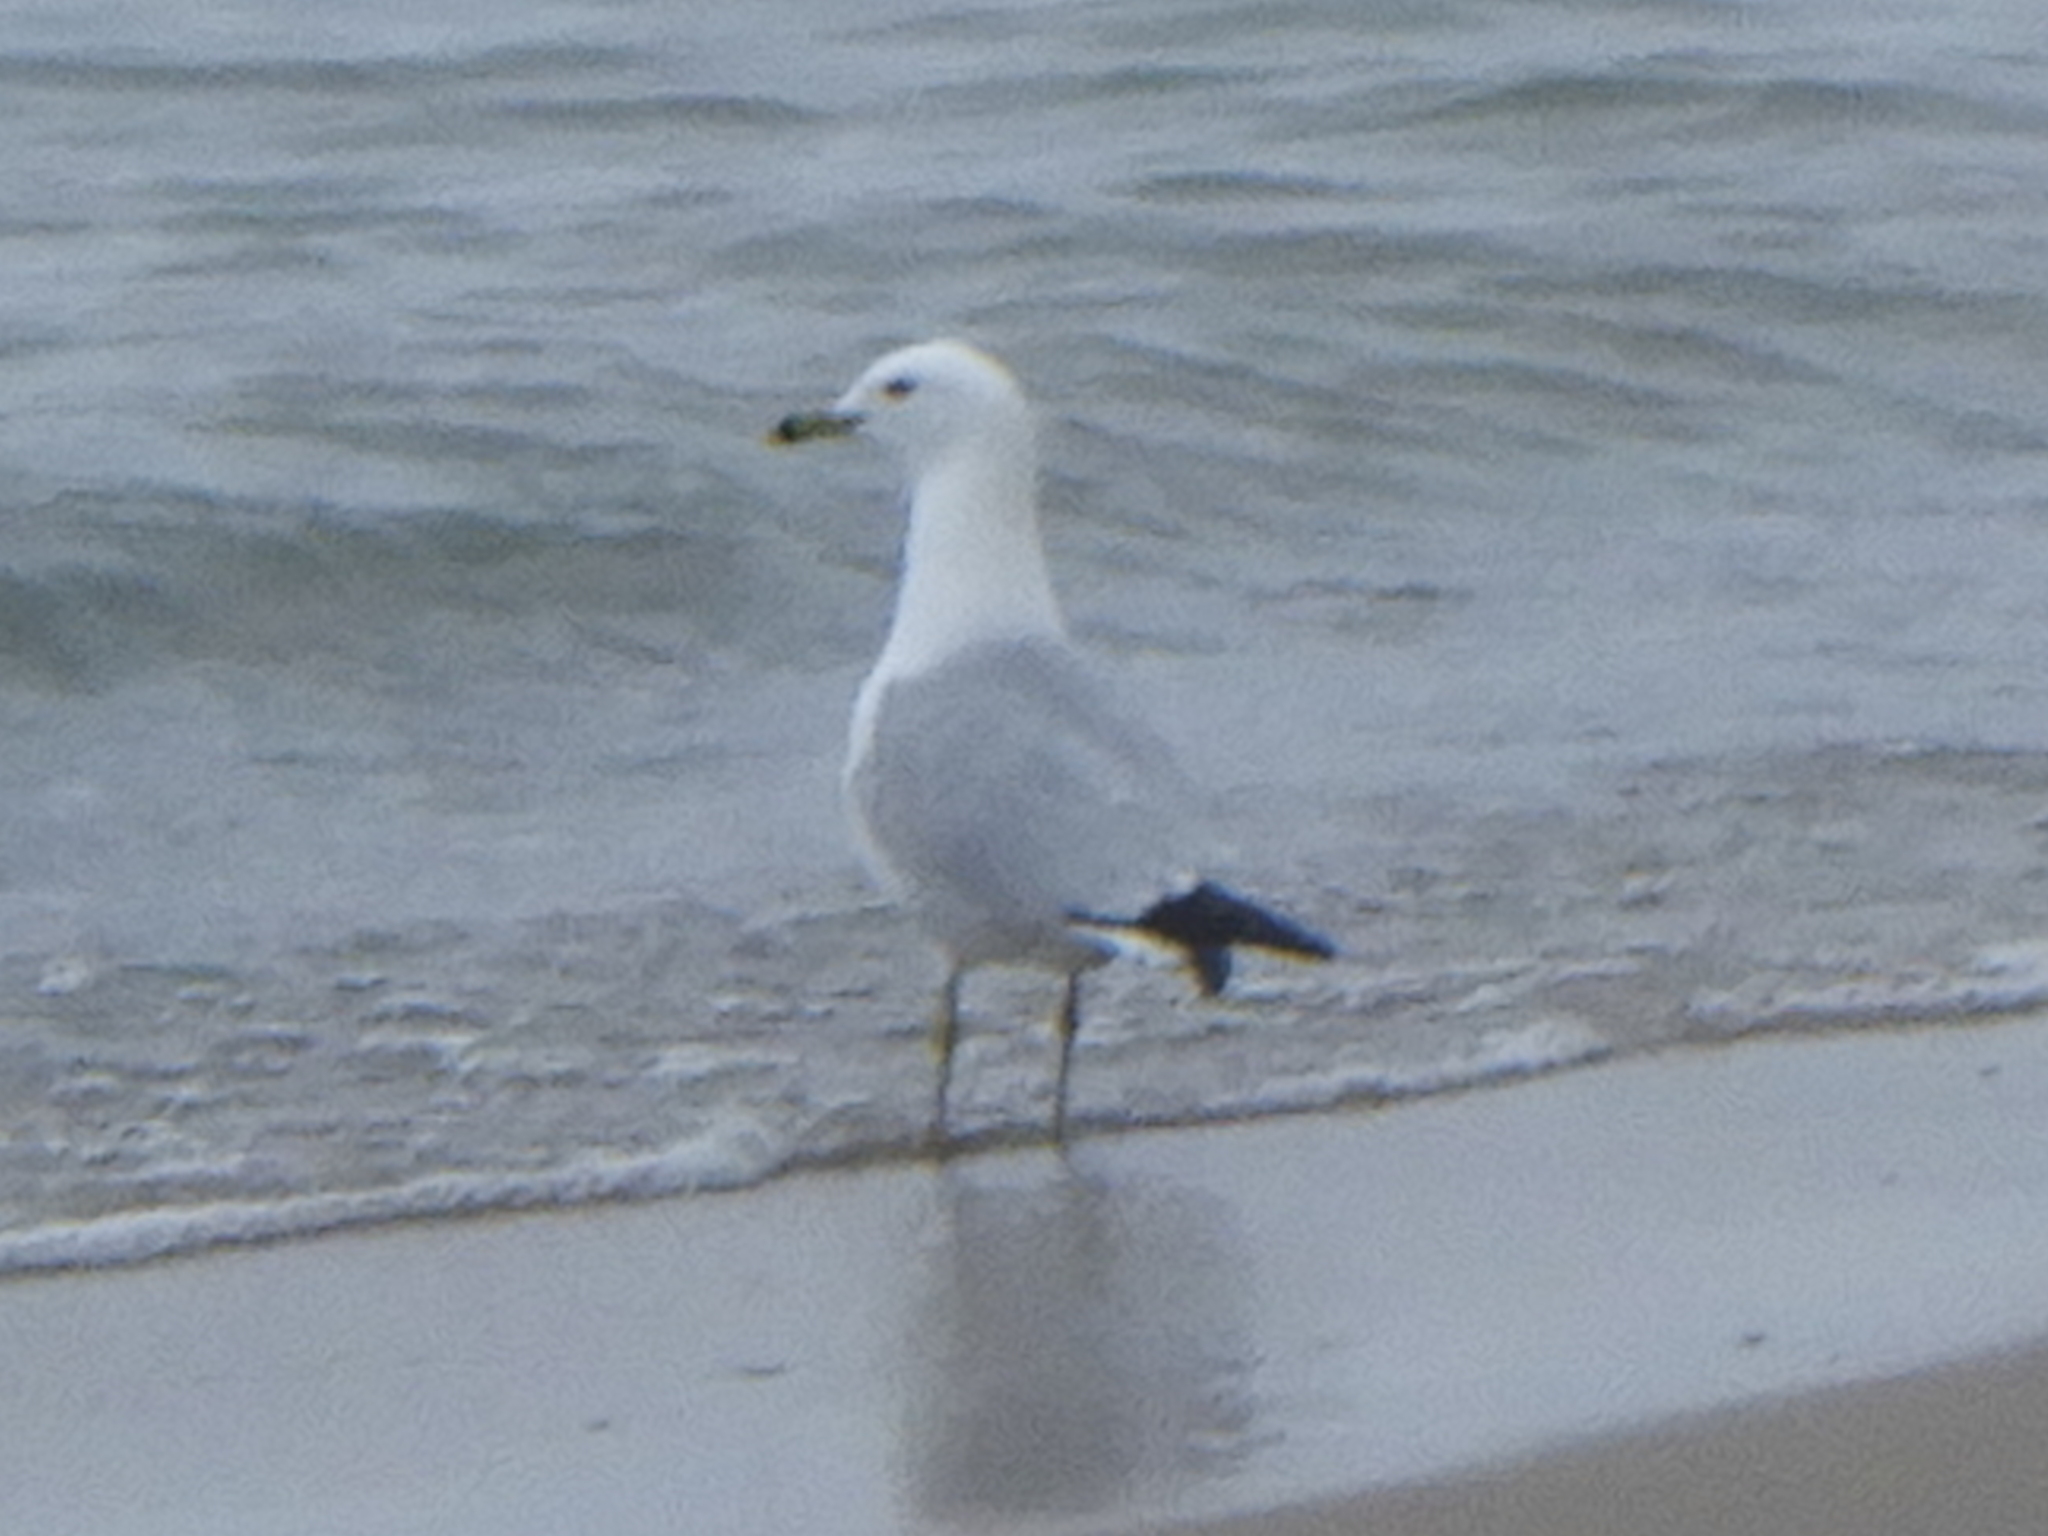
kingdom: Animalia
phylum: Chordata
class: Aves
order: Charadriiformes
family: Laridae
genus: Larus
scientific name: Larus delawarensis
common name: Ring-billed gull
